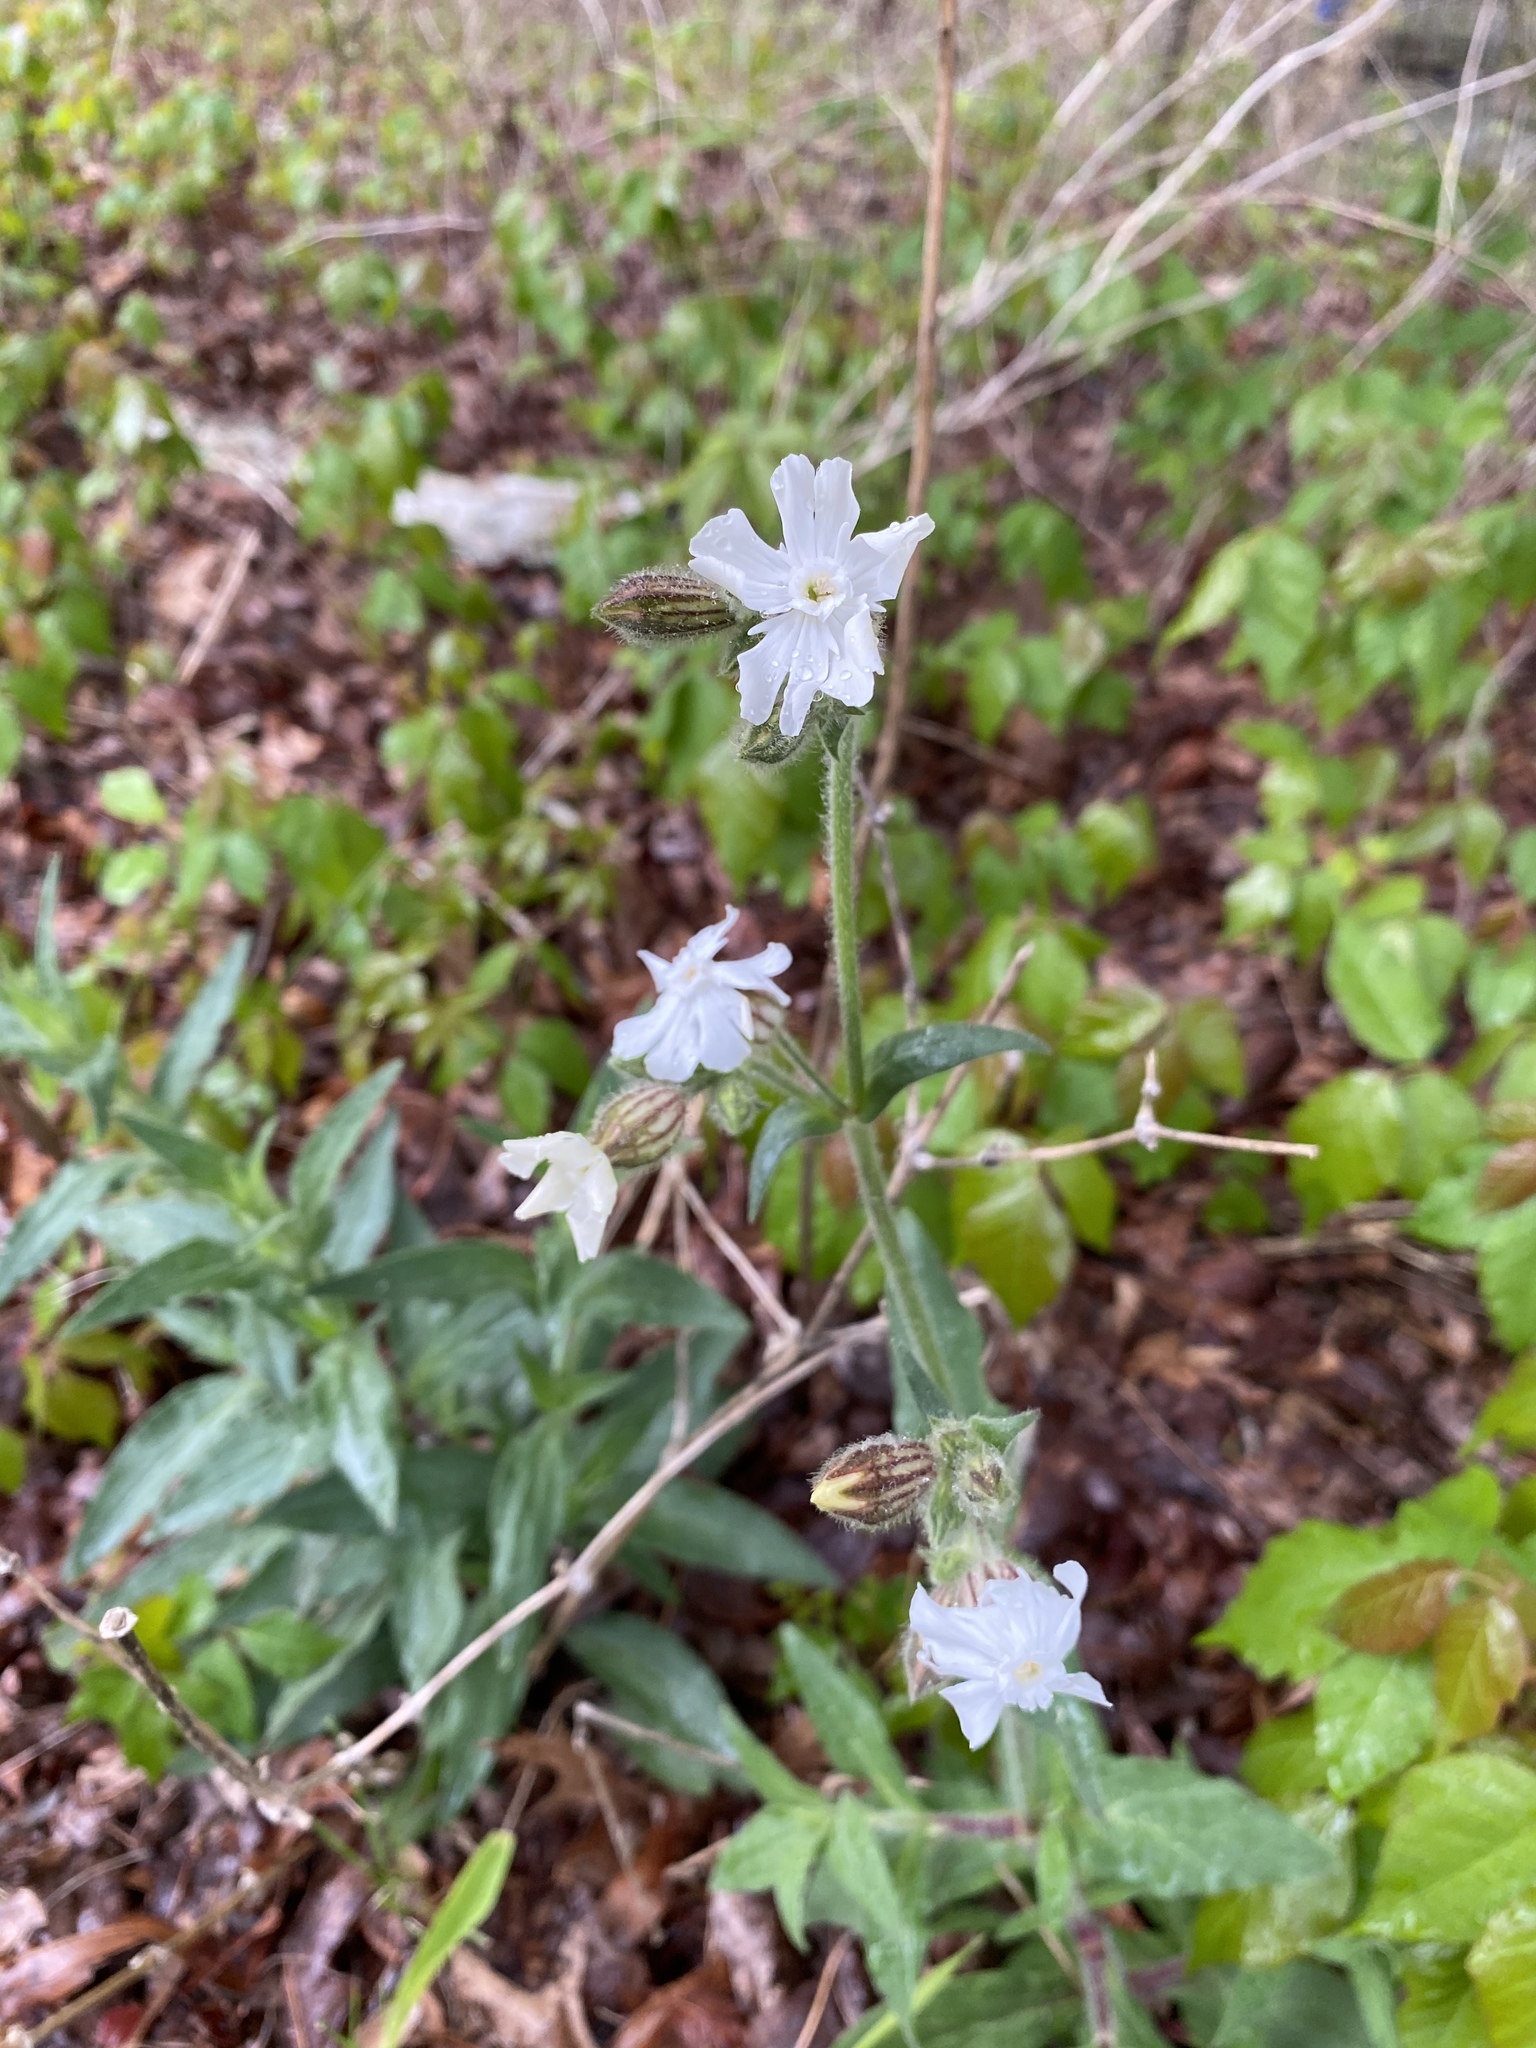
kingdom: Plantae
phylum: Tracheophyta
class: Magnoliopsida
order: Caryophyllales
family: Caryophyllaceae
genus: Silene
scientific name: Silene latifolia
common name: White campion
